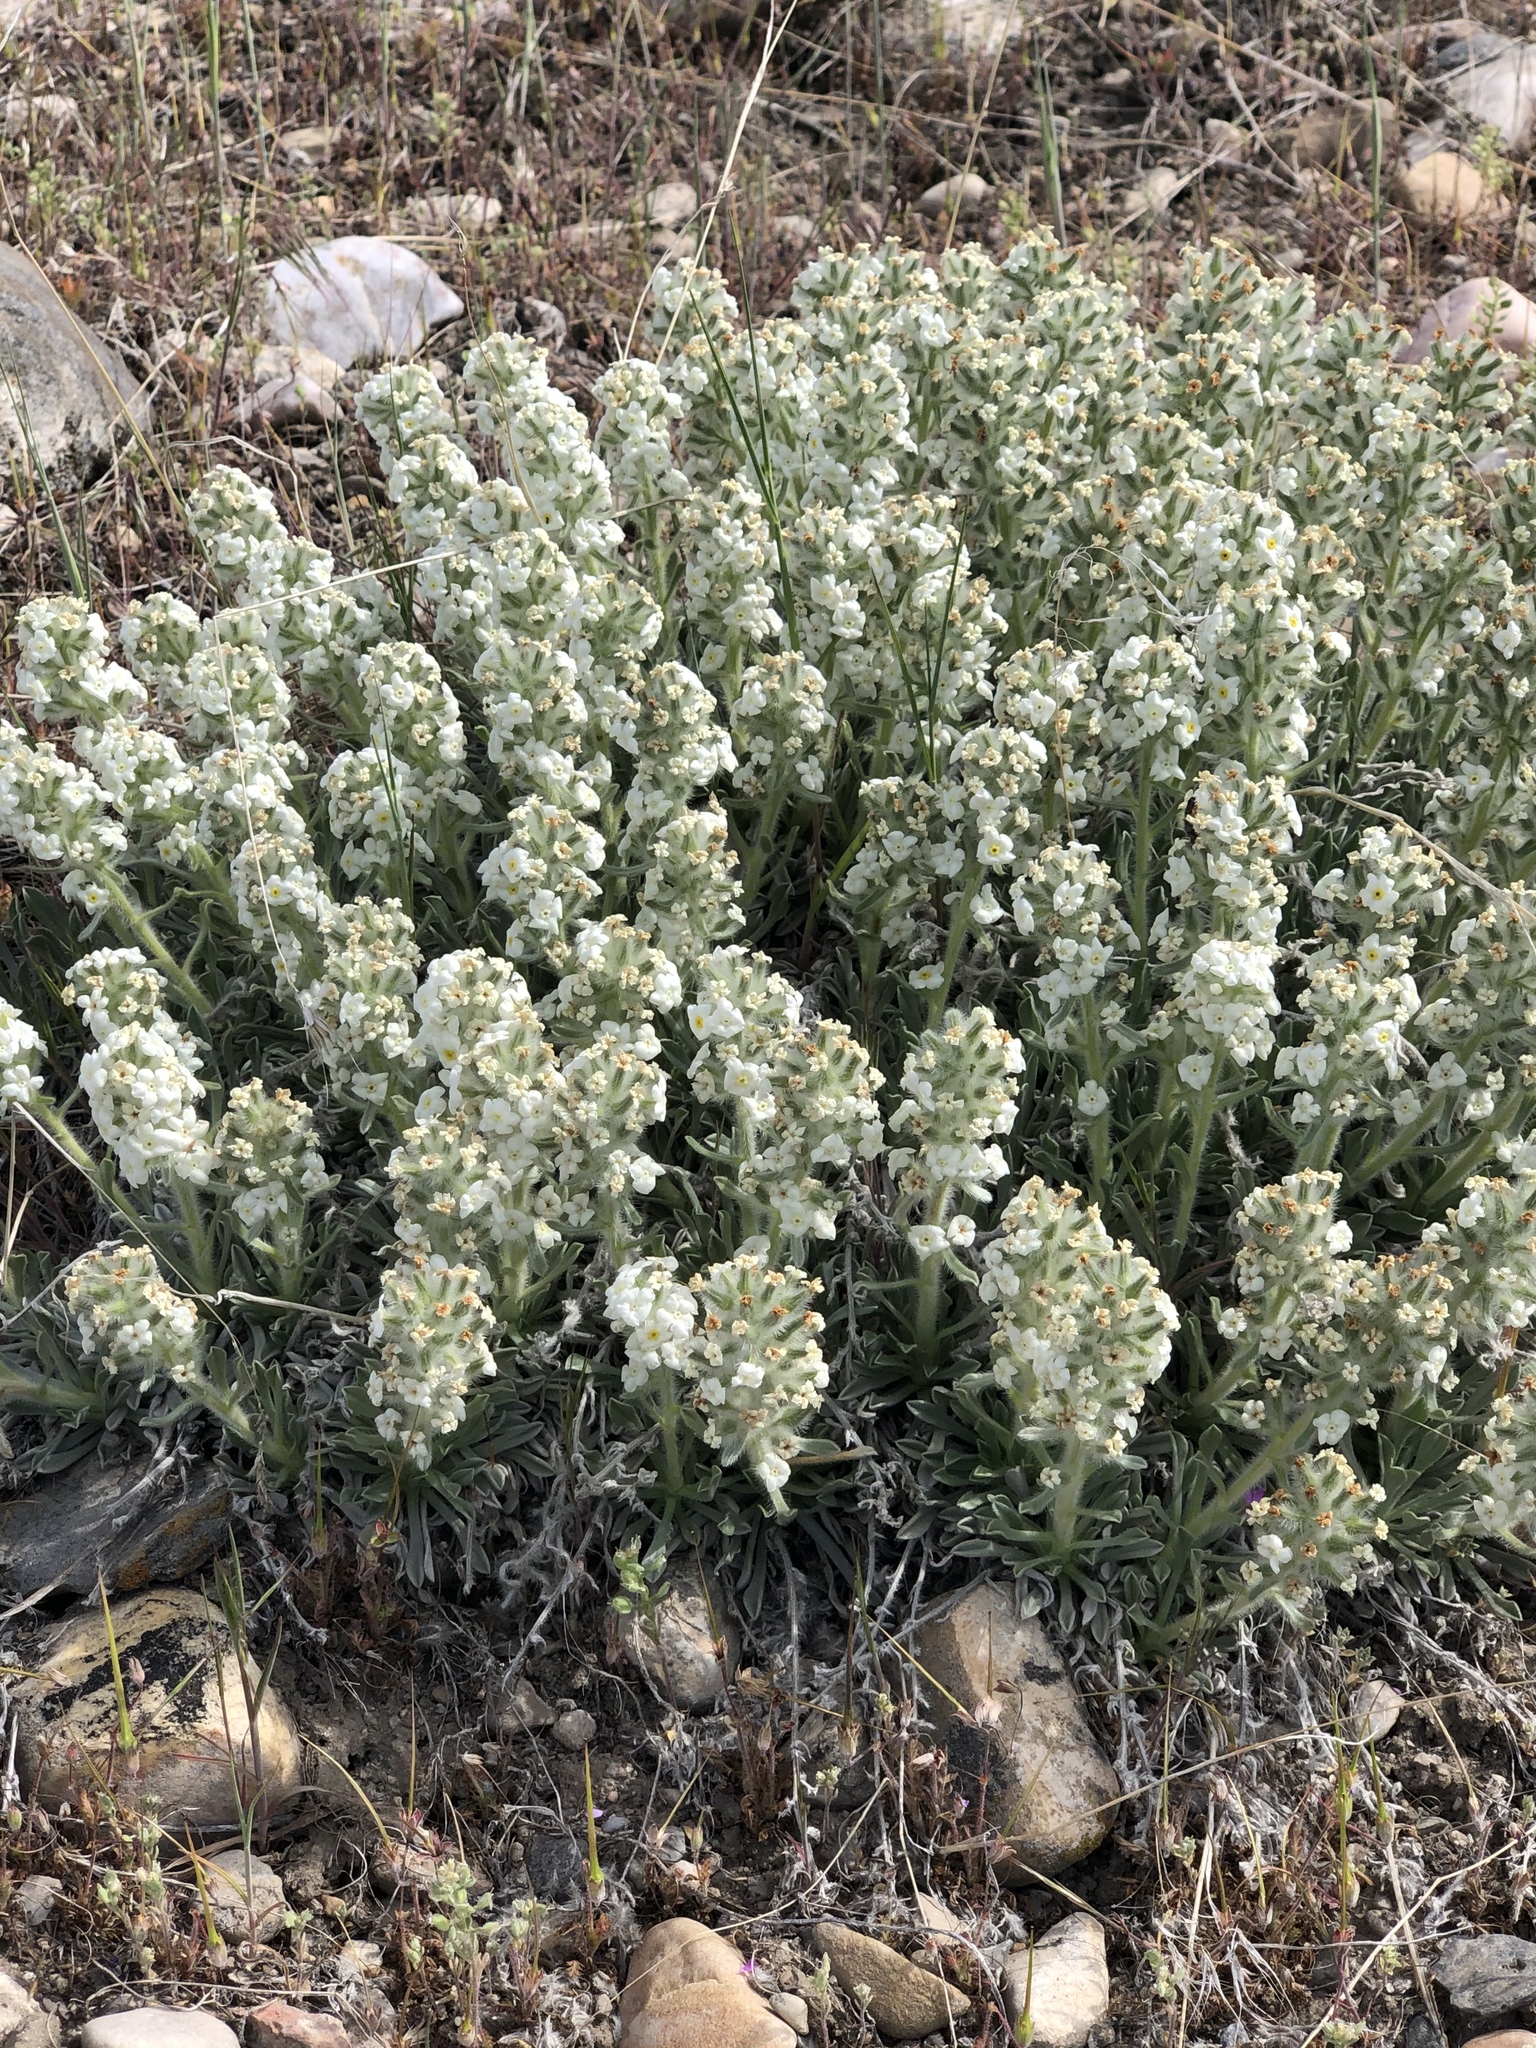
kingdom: Plantae
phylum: Tracheophyta
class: Magnoliopsida
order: Boraginales
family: Boraginaceae
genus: Oreocarya
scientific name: Oreocarya humilis
